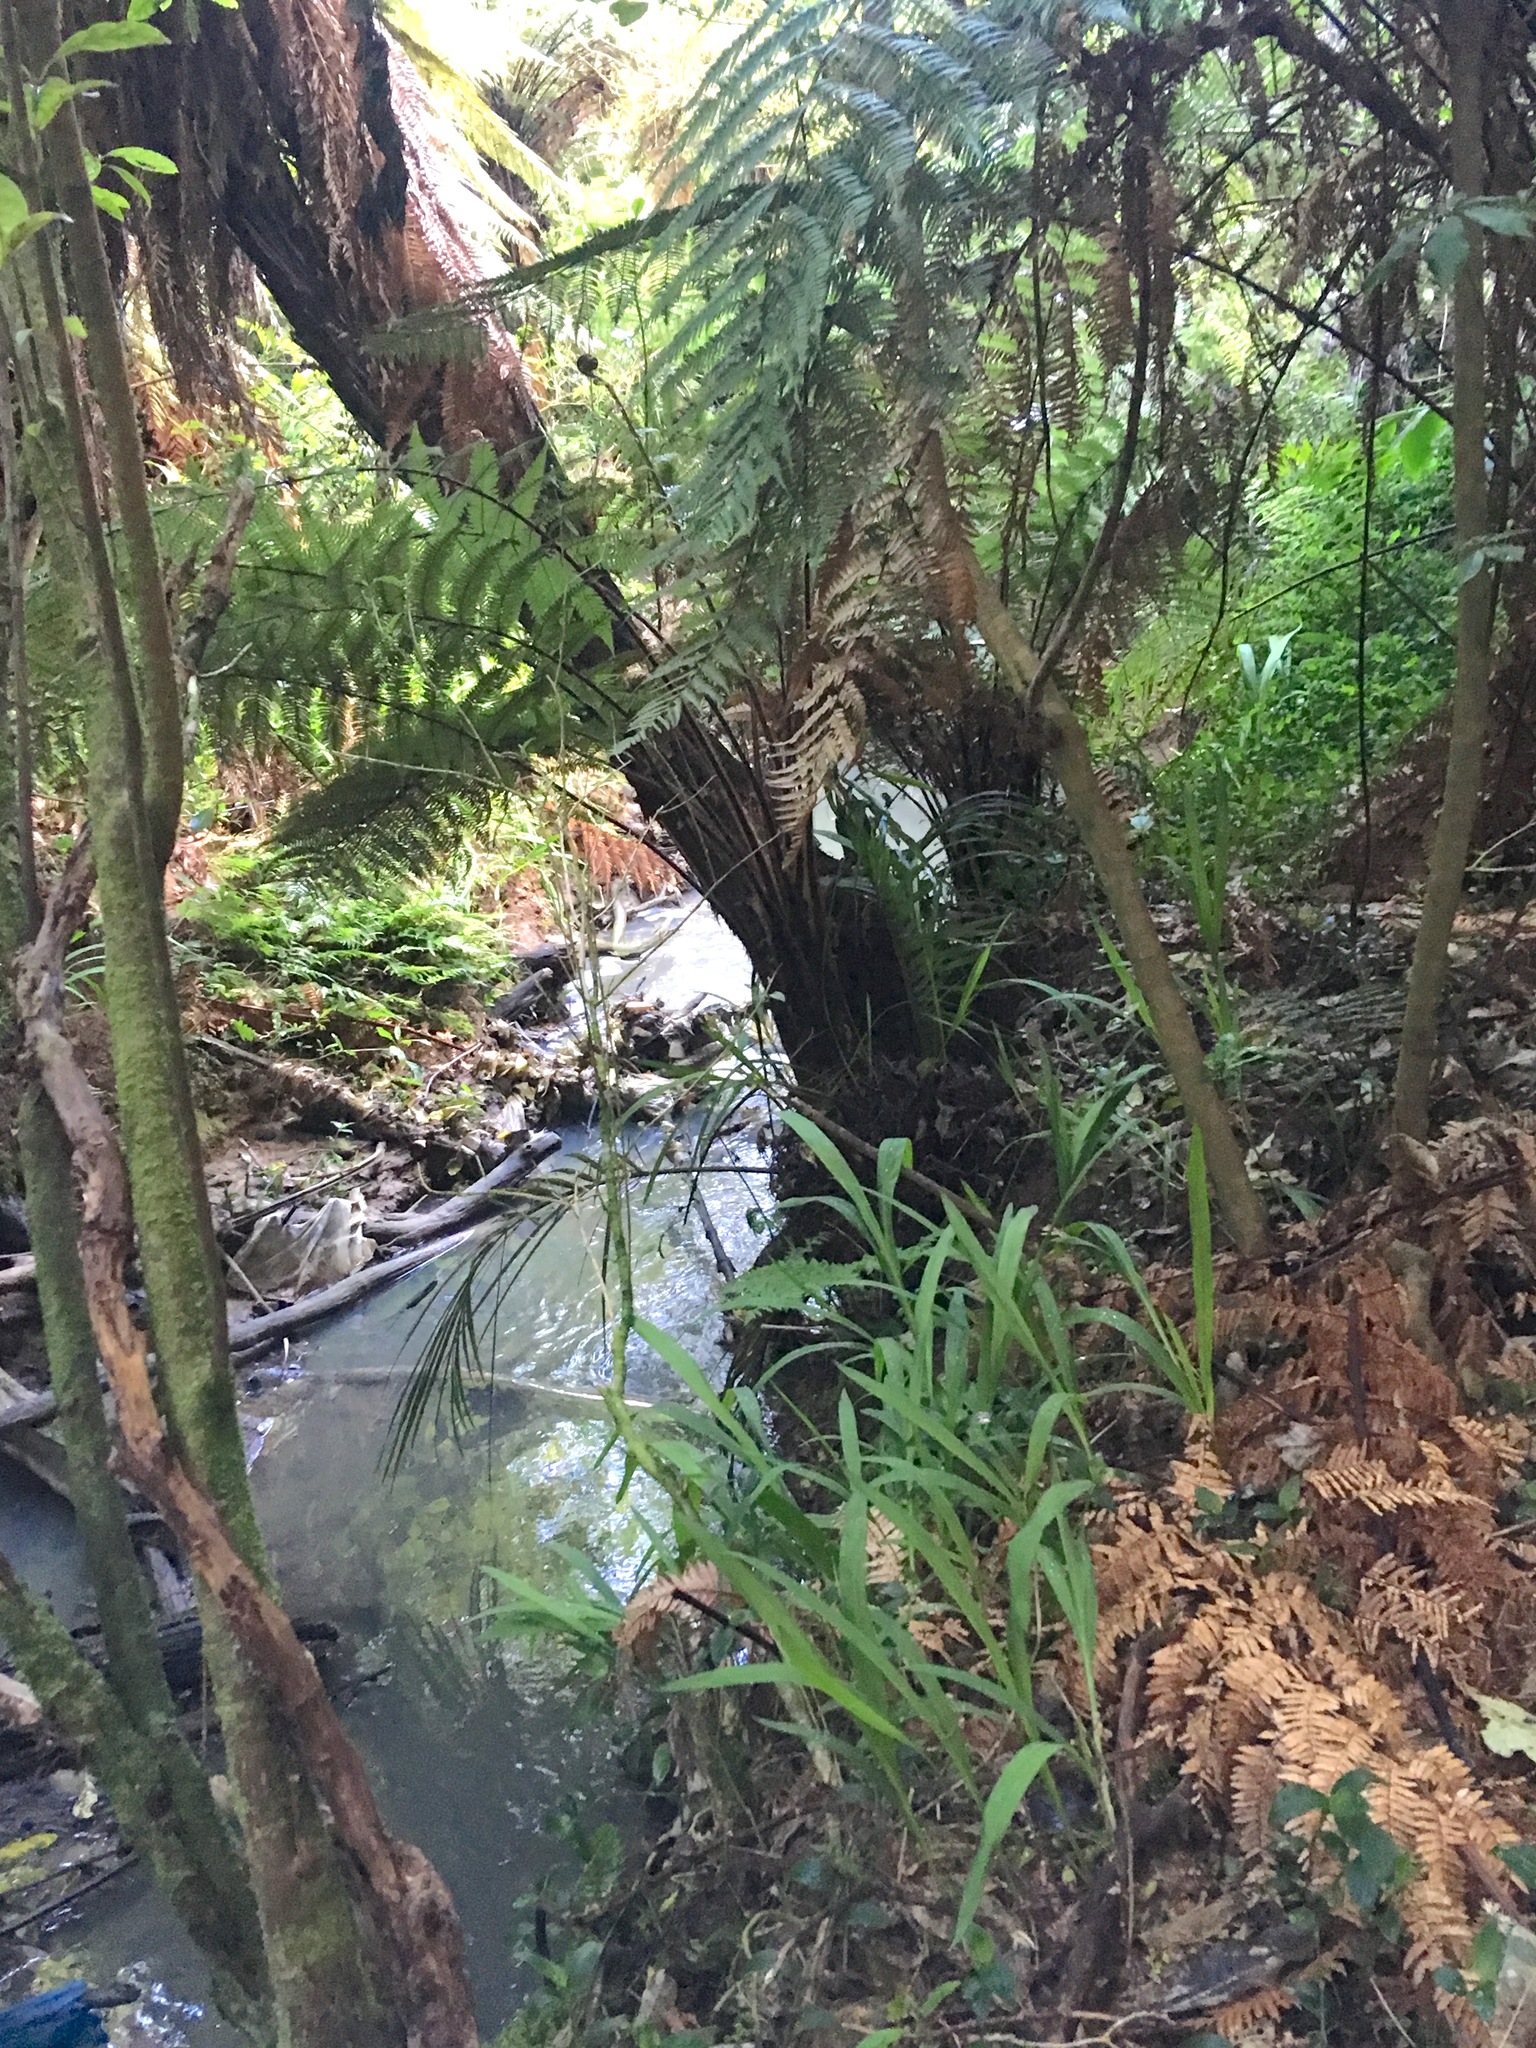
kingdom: Plantae
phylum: Tracheophyta
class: Liliopsida
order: Asparagales
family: Iridaceae
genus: Crocosmia
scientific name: Crocosmia crocosmiiflora
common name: Montbretia
